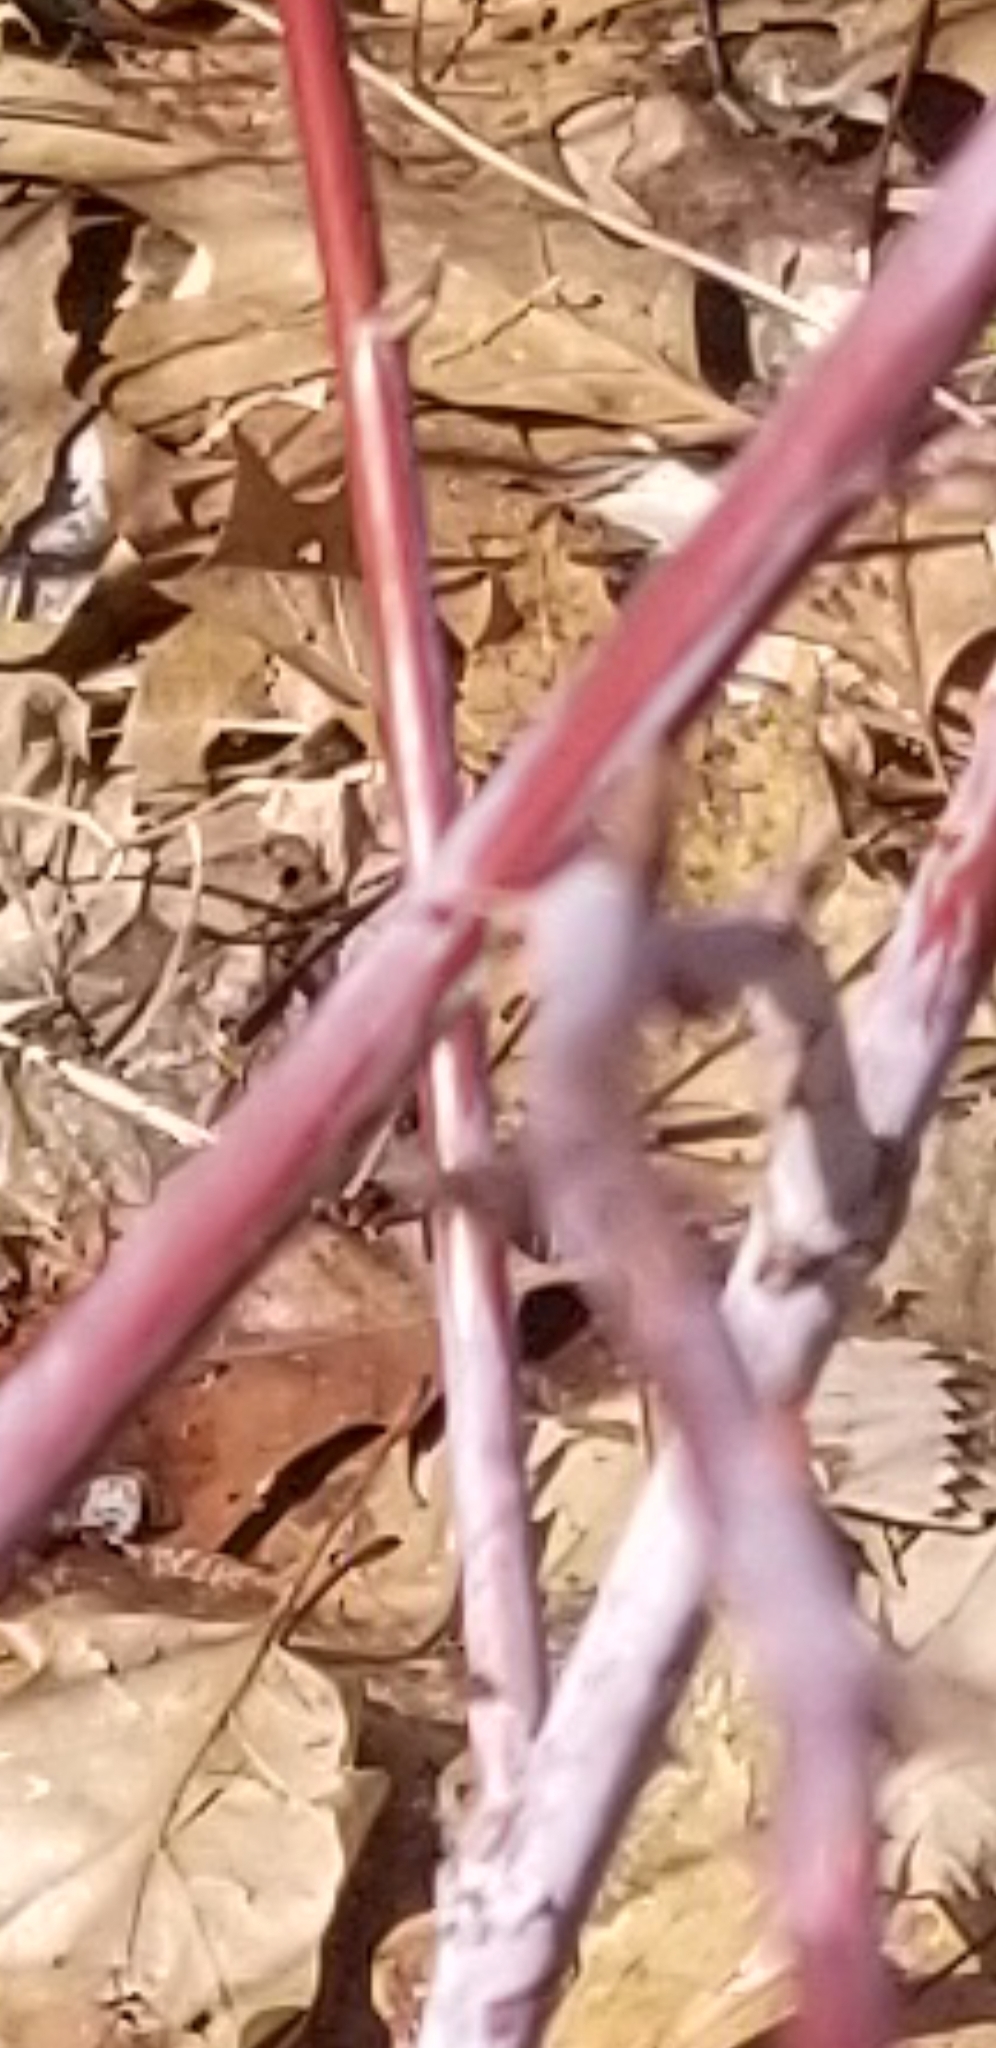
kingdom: Plantae
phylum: Tracheophyta
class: Magnoliopsida
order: Rosales
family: Rosaceae
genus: Rubus
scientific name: Rubus occidentalis
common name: Black raspberry
